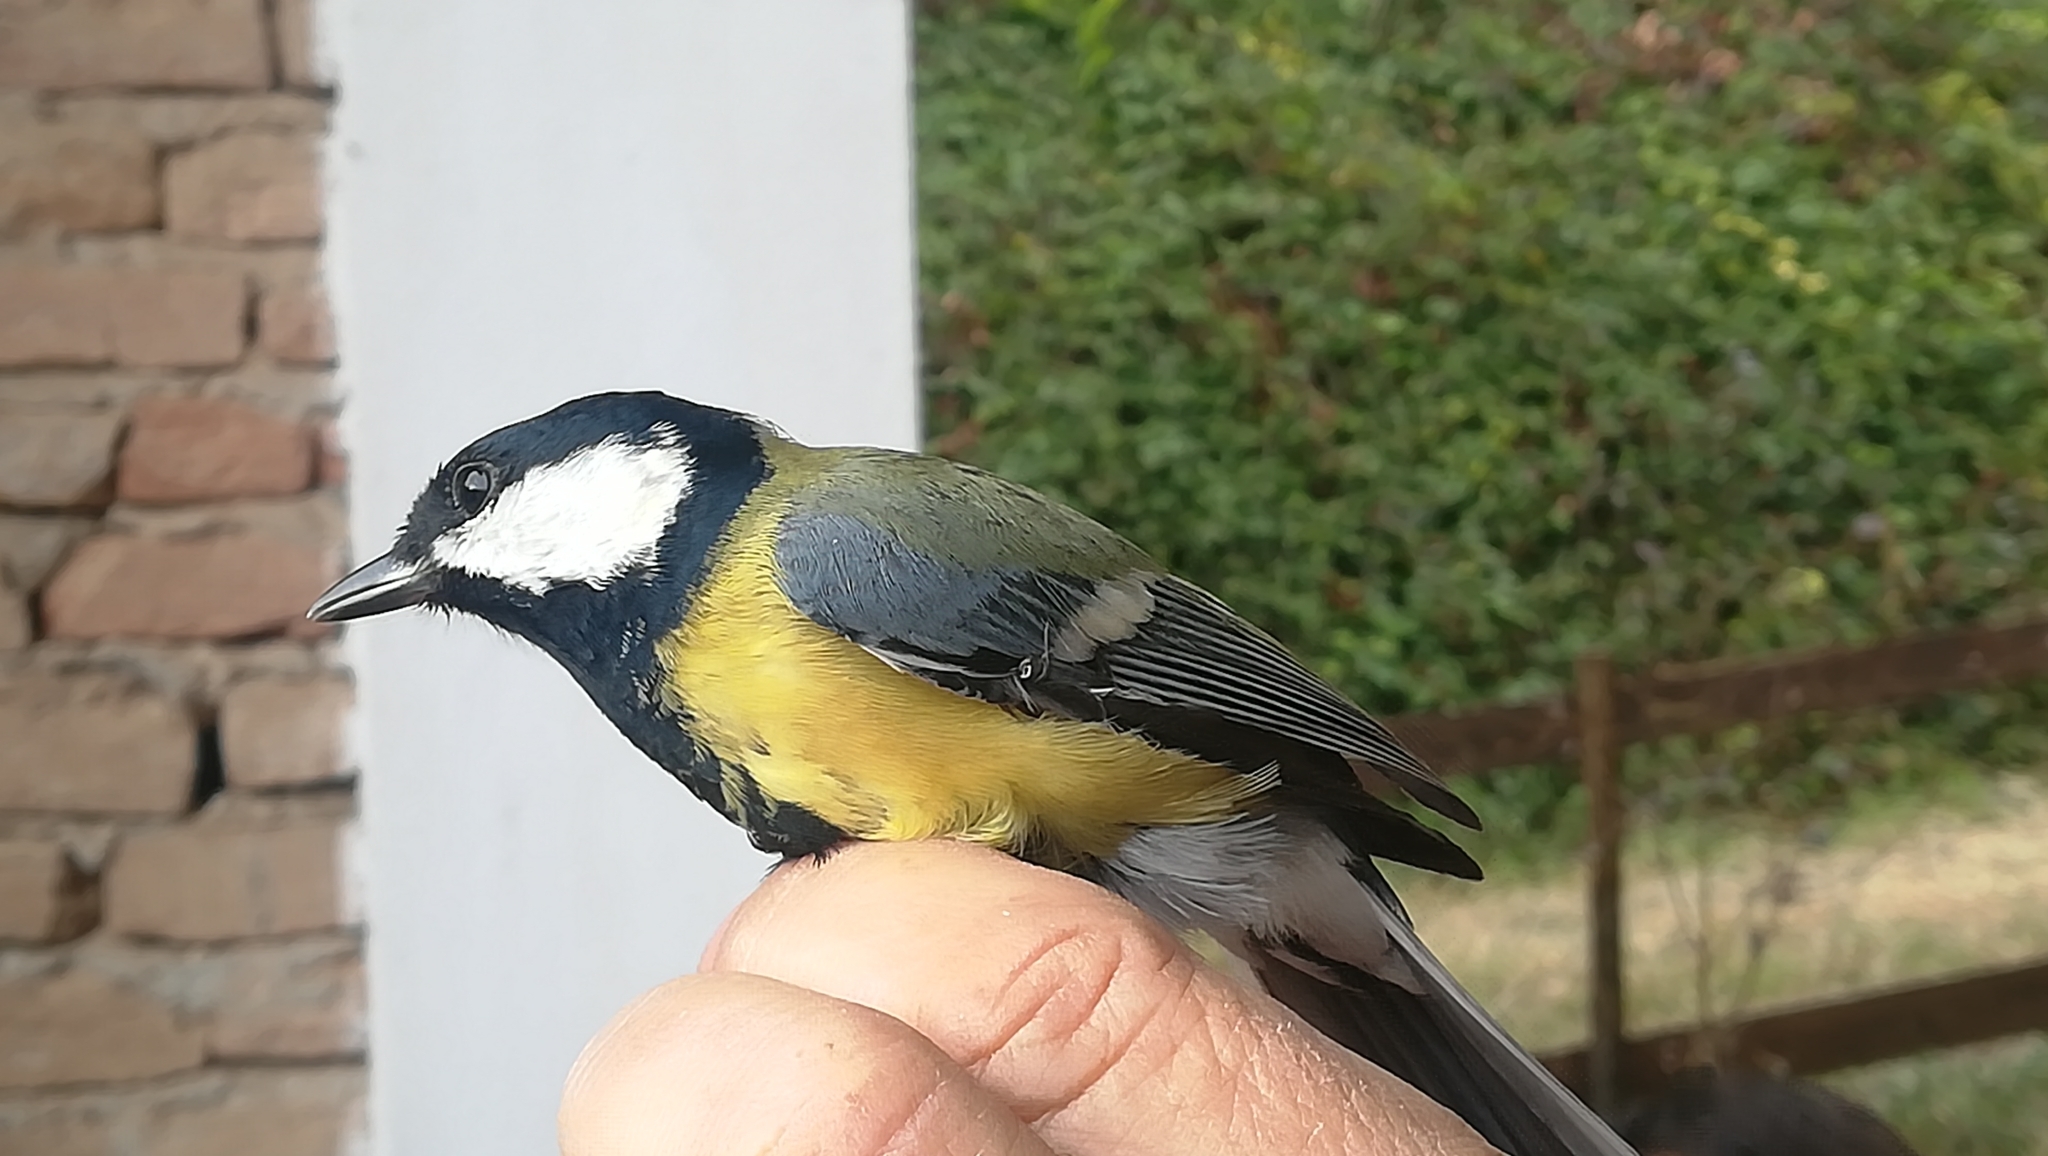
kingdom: Animalia
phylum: Chordata
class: Aves
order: Passeriformes
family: Paridae
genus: Parus
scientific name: Parus major
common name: Great tit
